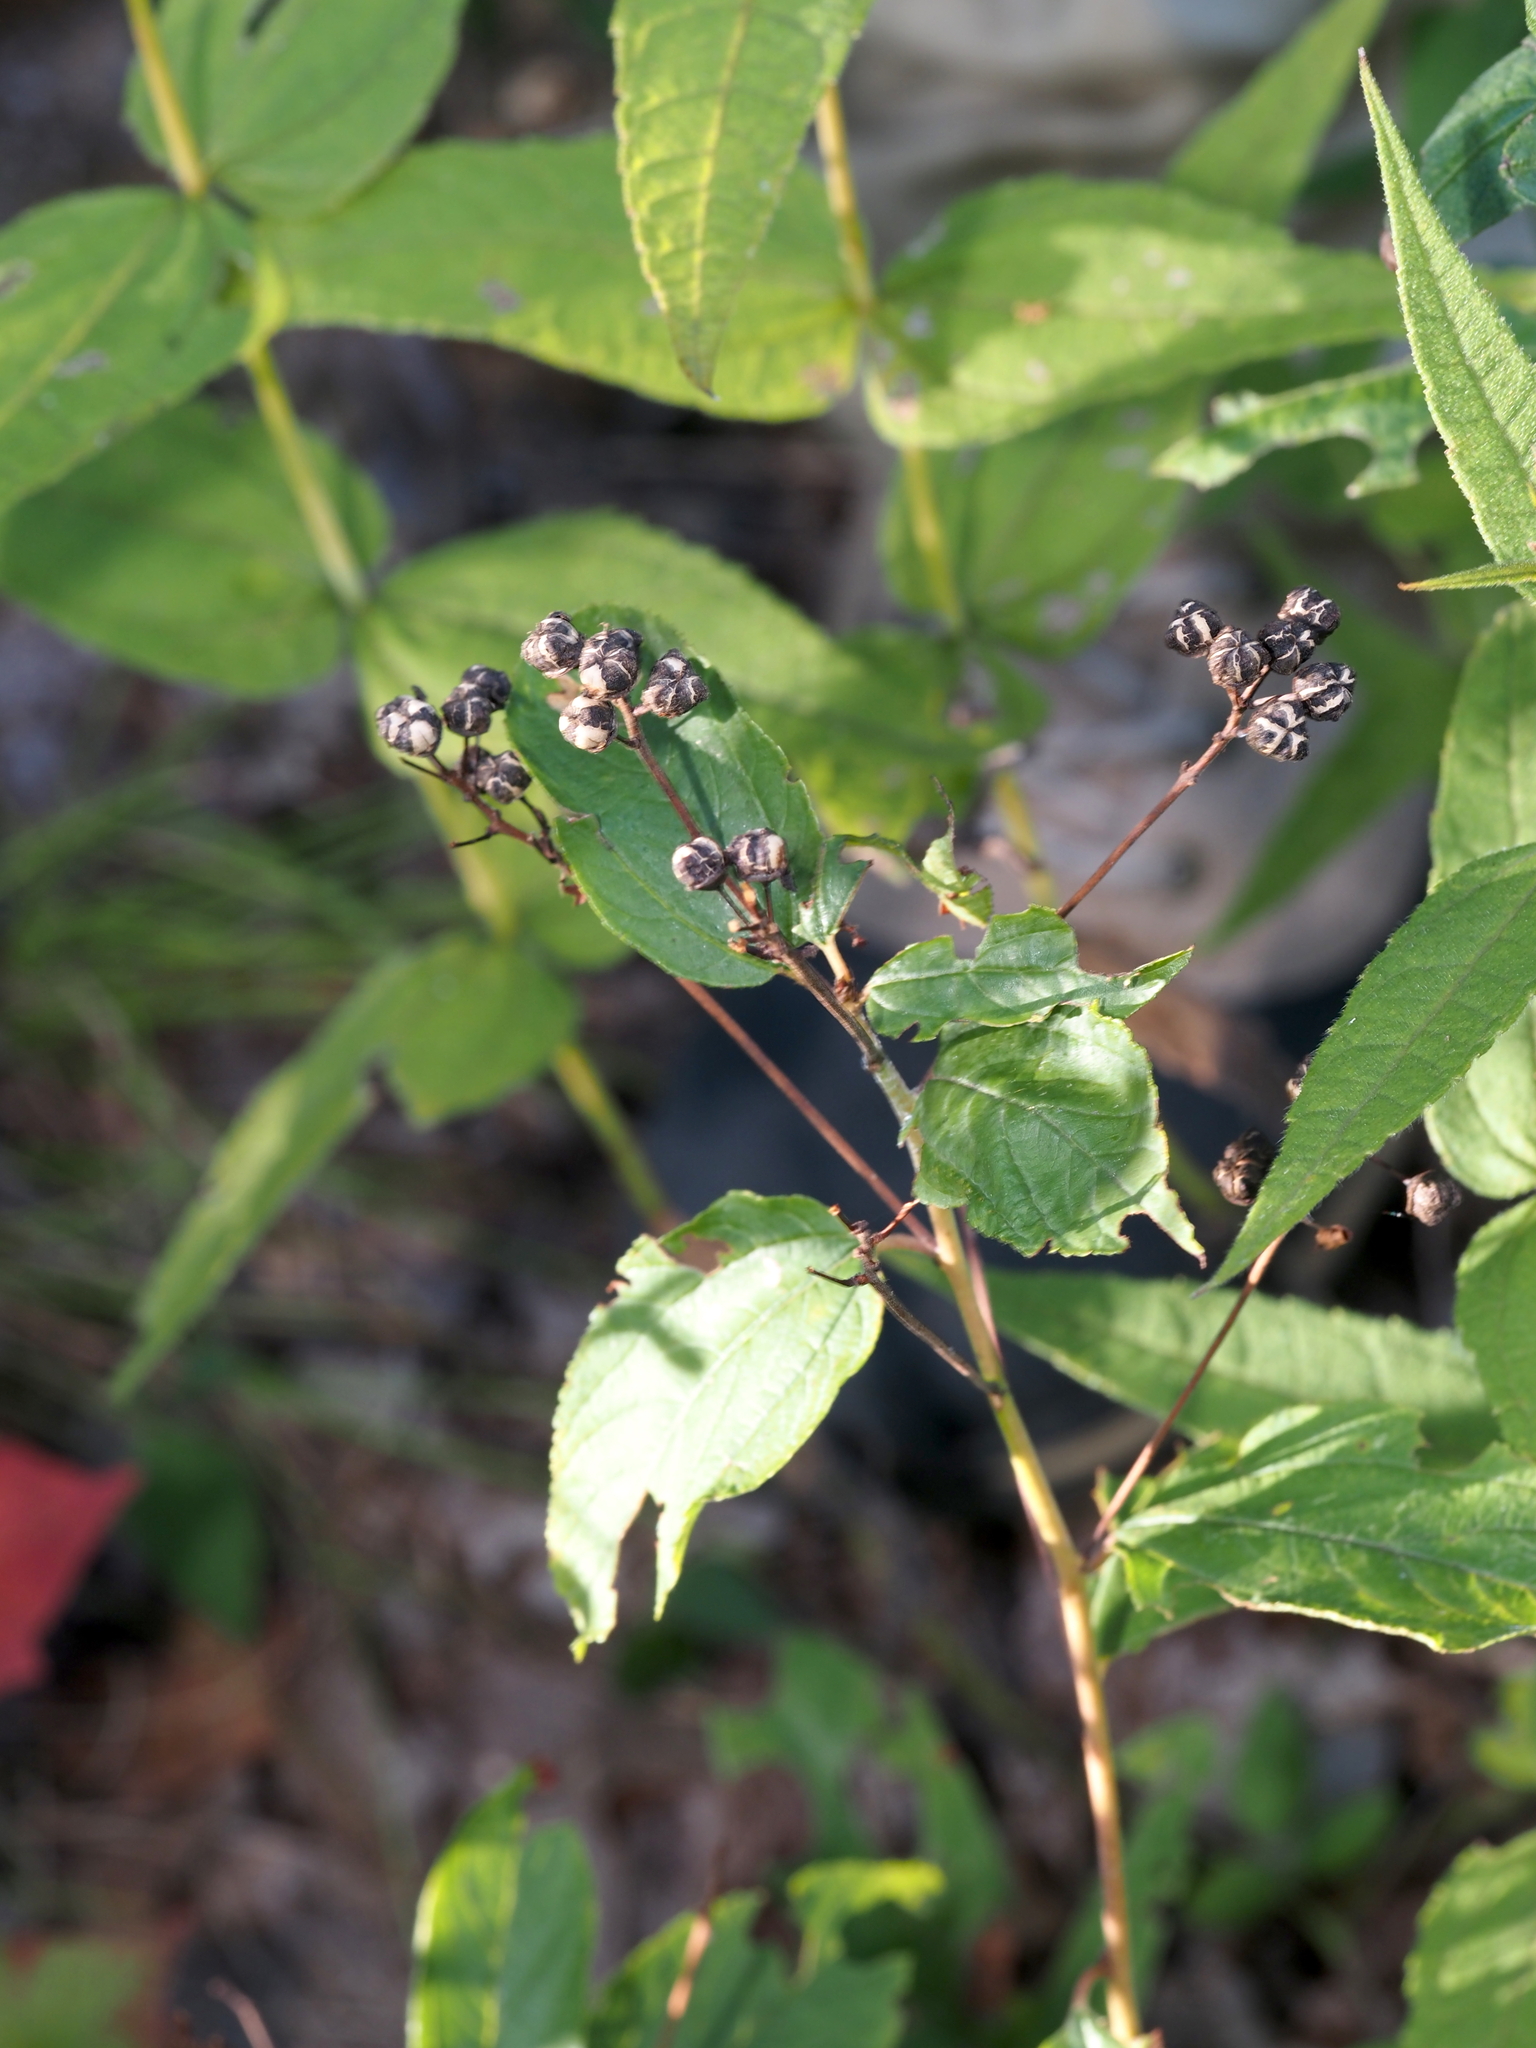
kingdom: Plantae
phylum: Tracheophyta
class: Magnoliopsida
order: Rosales
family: Rhamnaceae
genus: Ceanothus
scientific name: Ceanothus americanus
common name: Redroot
